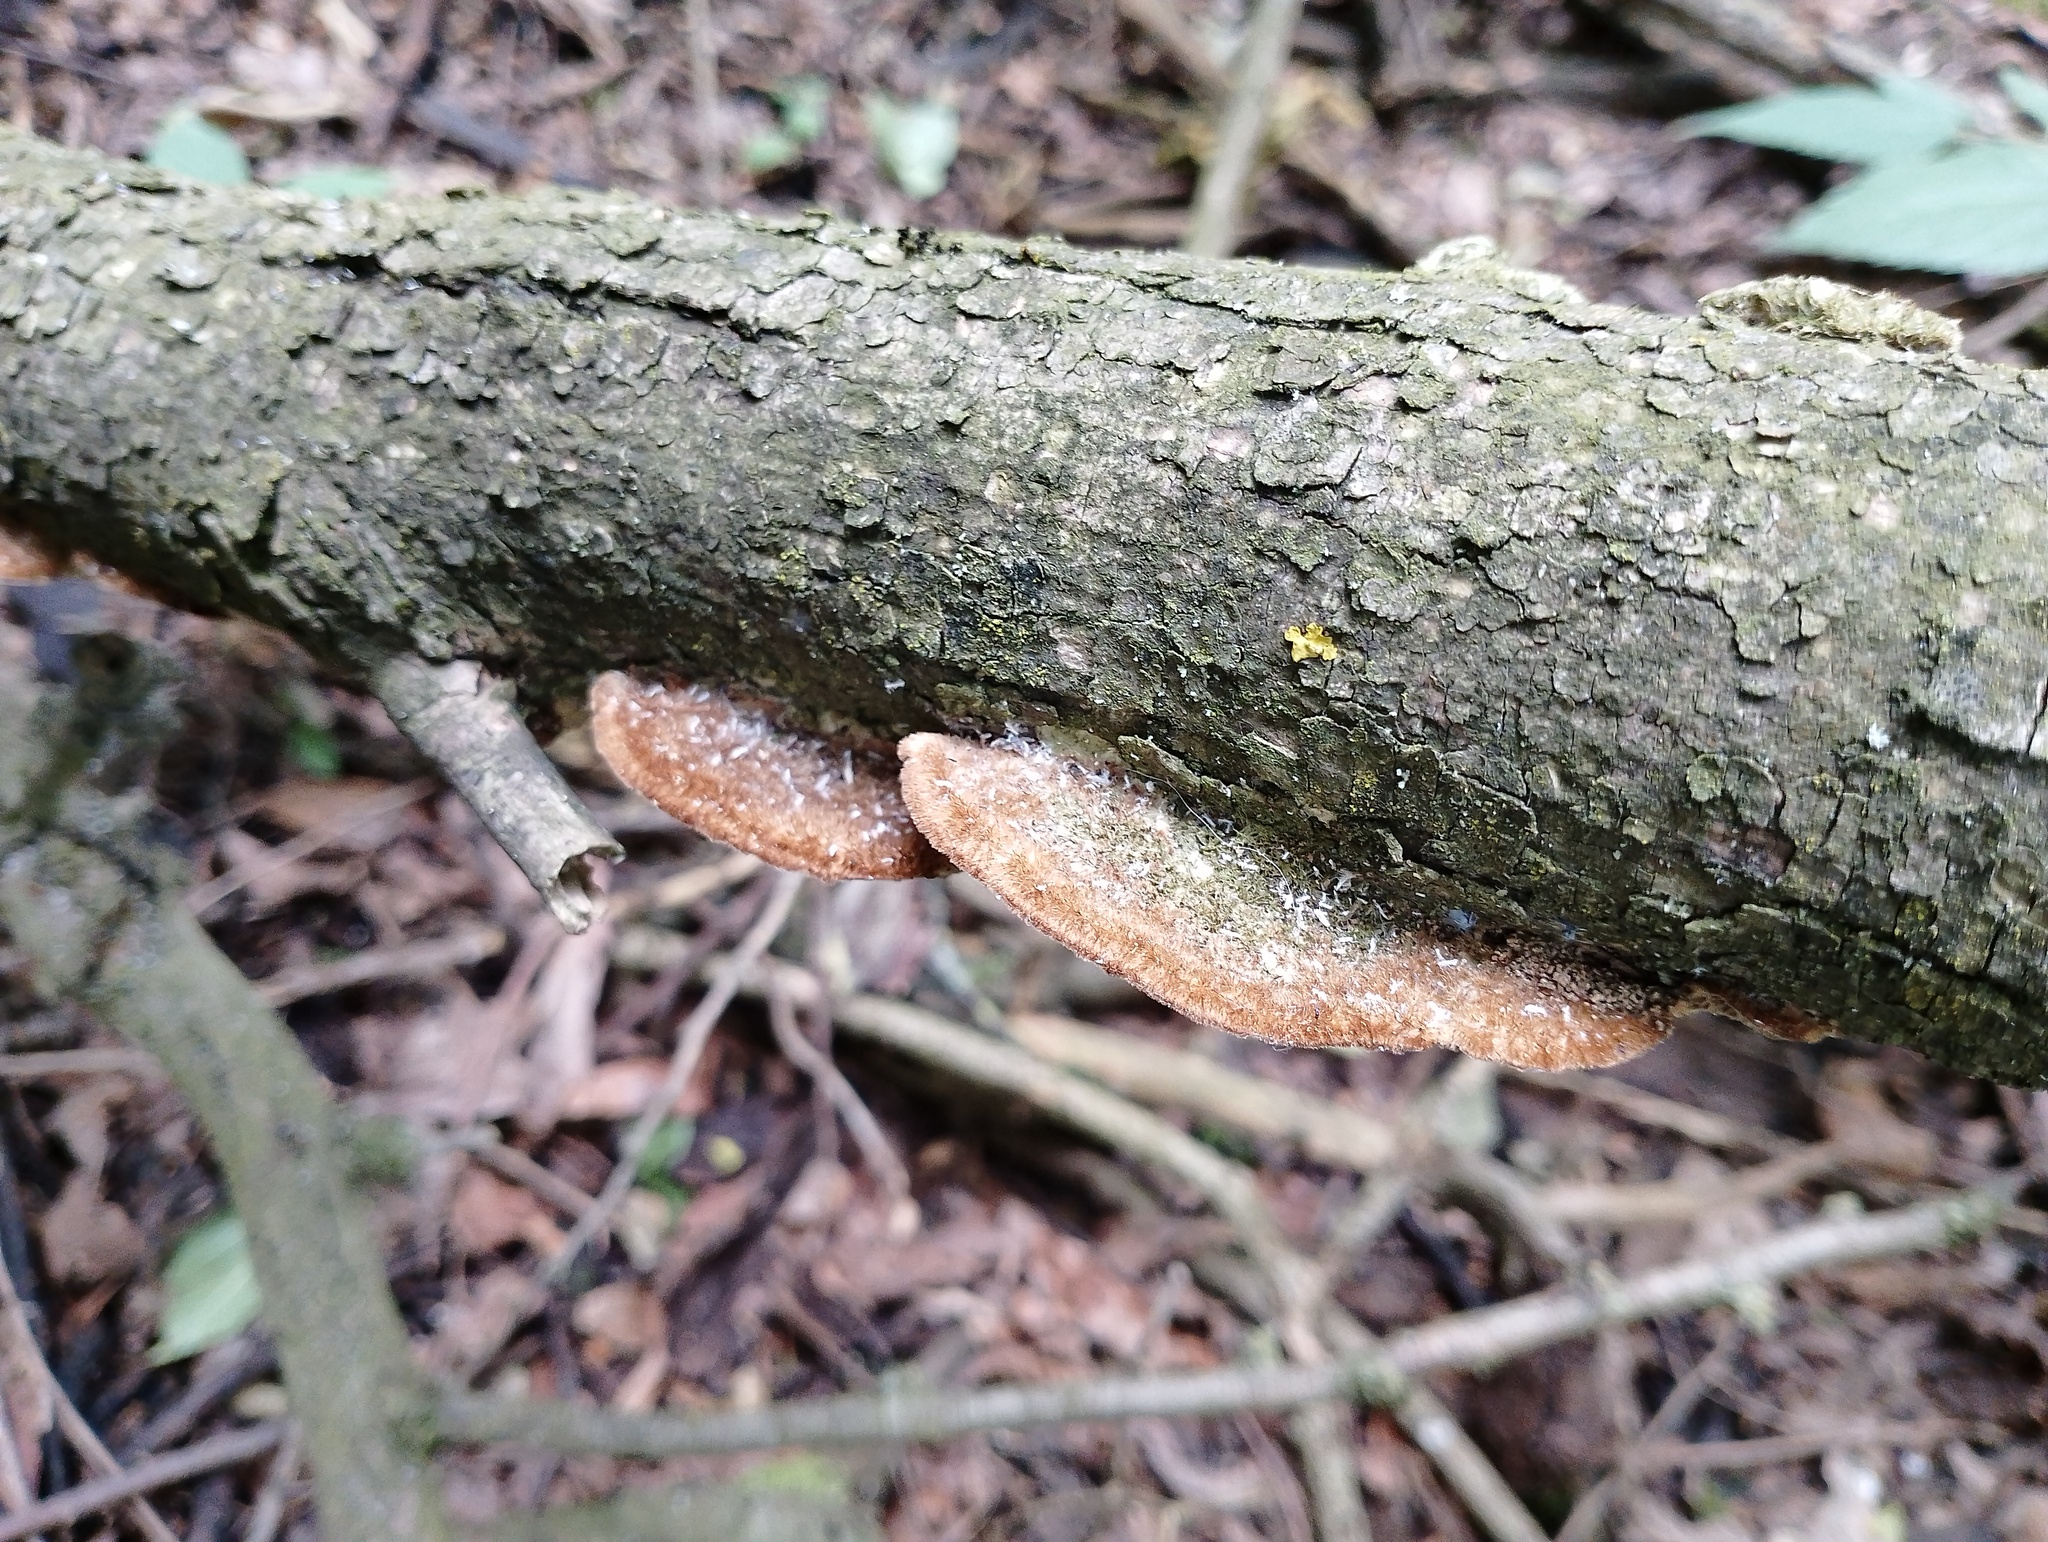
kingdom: Fungi
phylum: Basidiomycota
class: Agaricomycetes
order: Polyporales
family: Polyporaceae
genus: Trametes
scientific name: Trametes trogii
